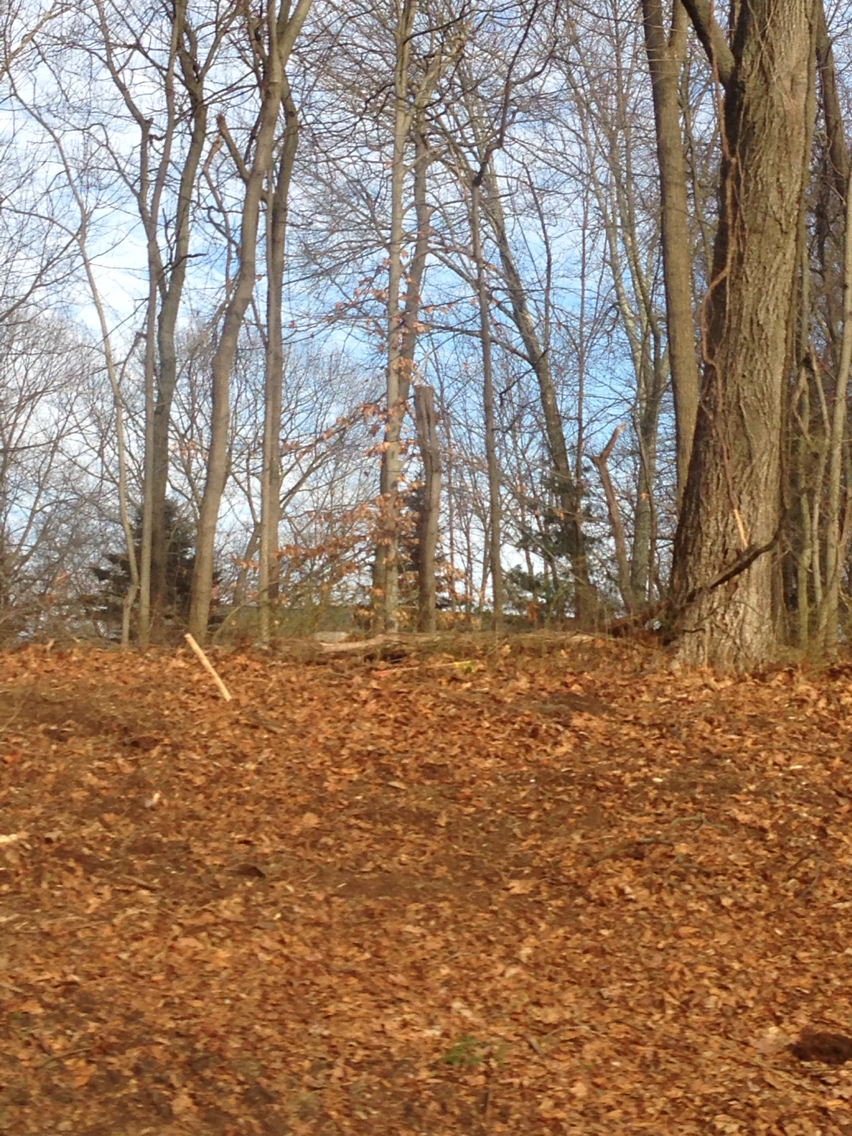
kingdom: Plantae
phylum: Tracheophyta
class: Magnoliopsida
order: Fagales
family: Fagaceae
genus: Fagus
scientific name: Fagus grandifolia
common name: American beech
